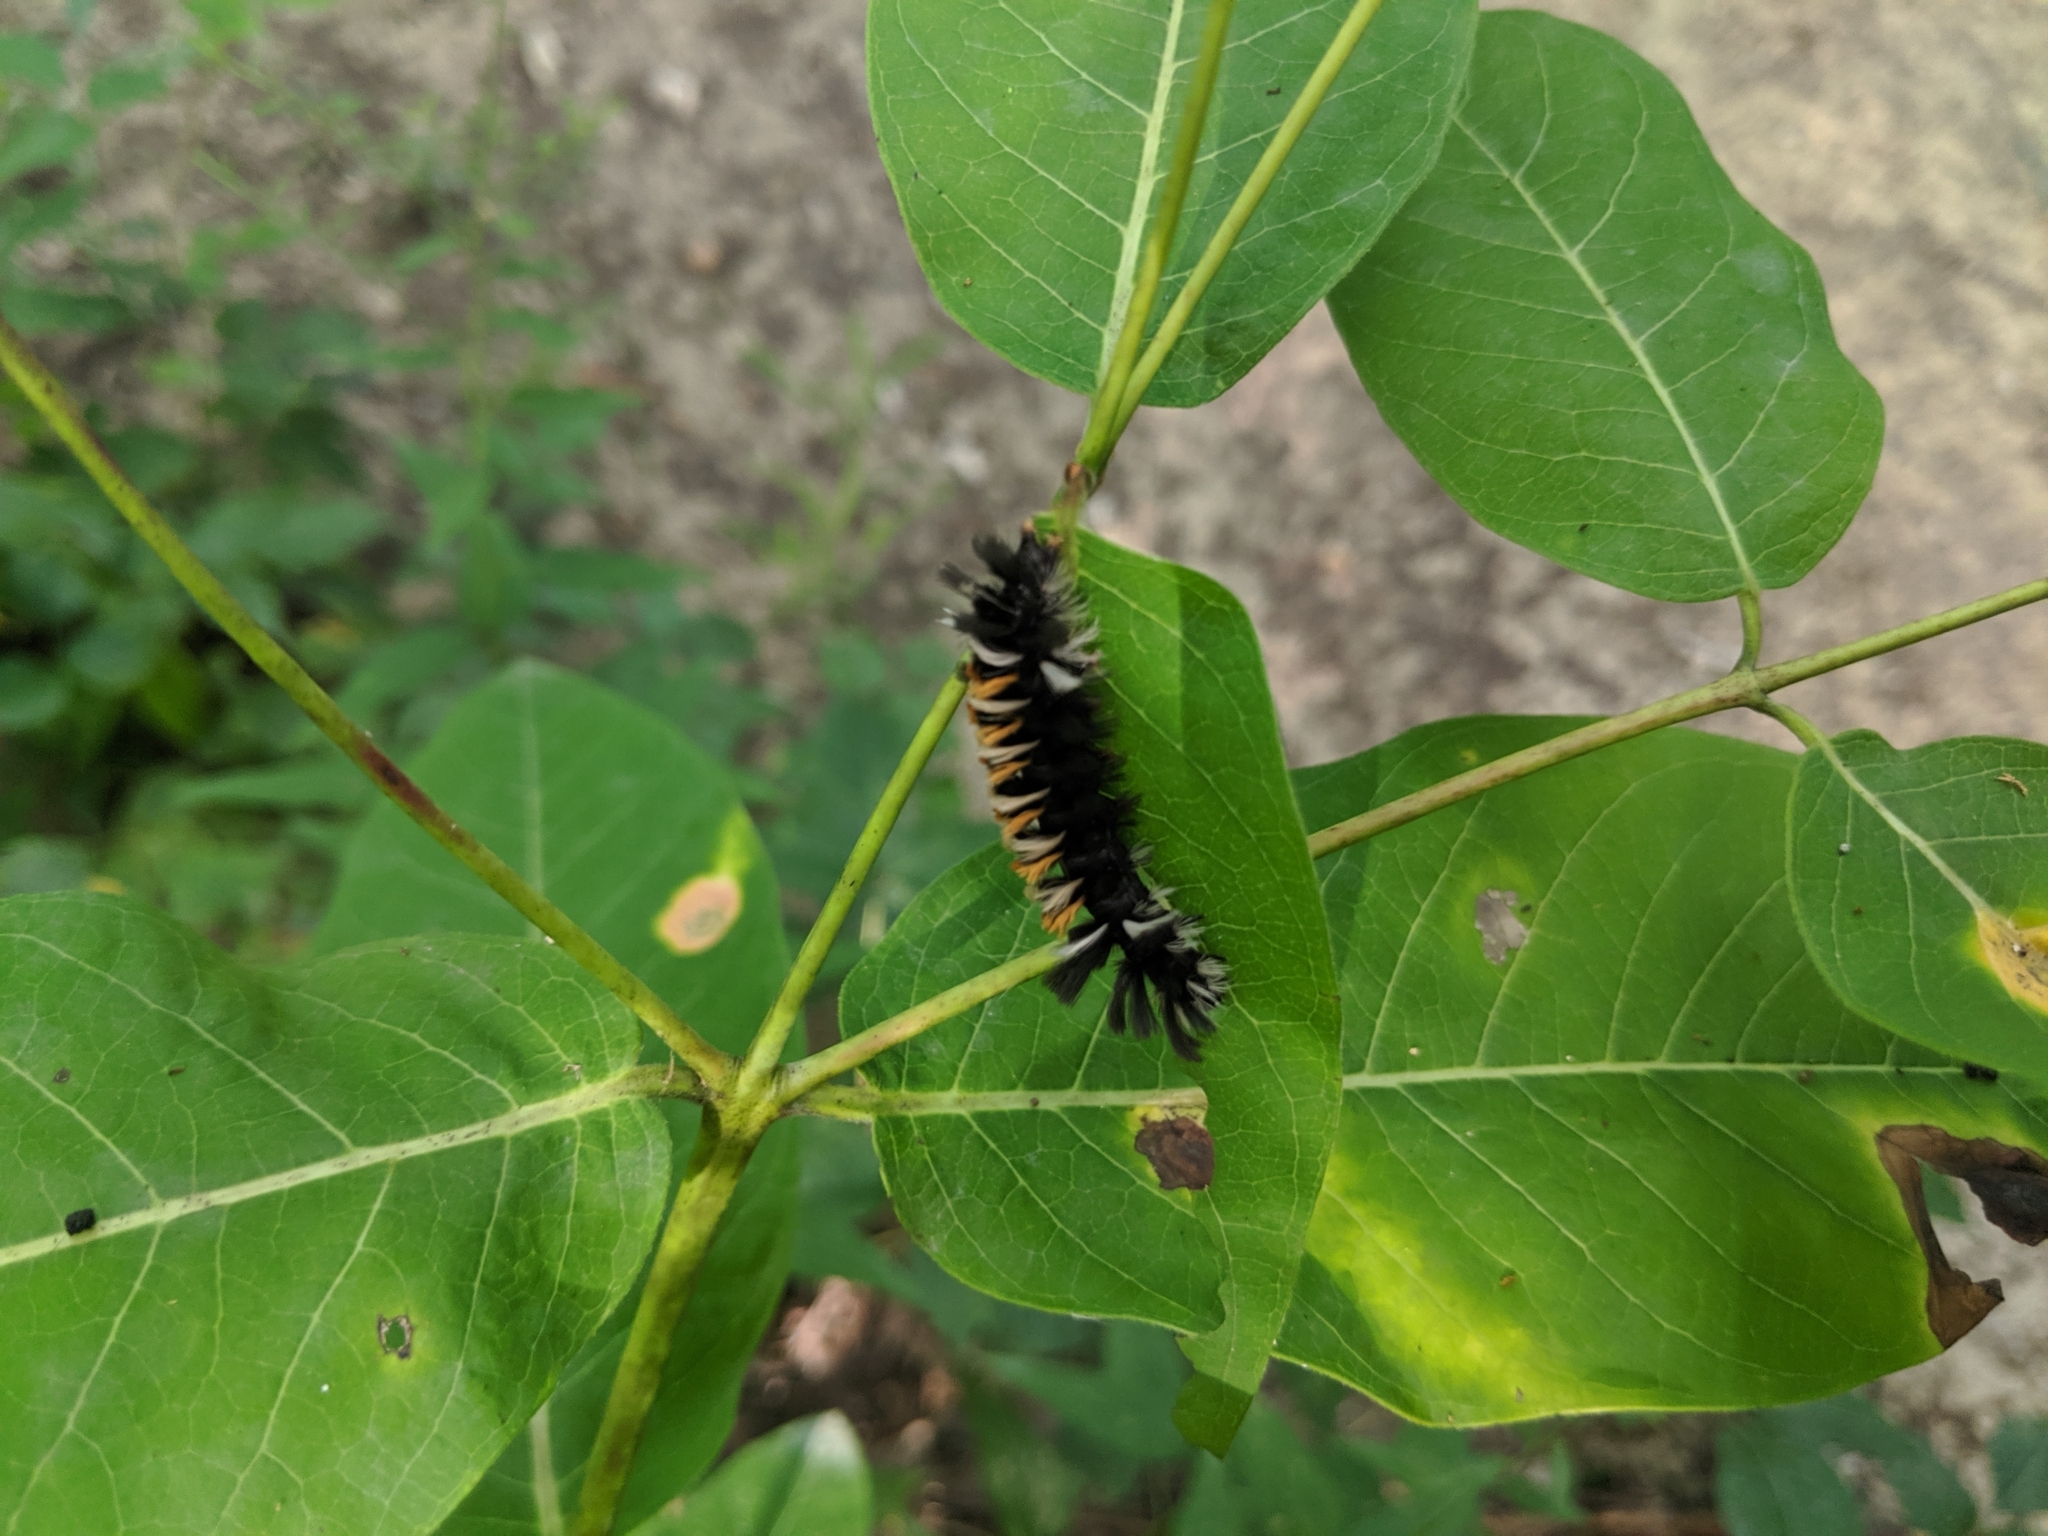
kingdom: Animalia
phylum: Arthropoda
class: Insecta
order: Lepidoptera
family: Erebidae
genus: Euchaetes
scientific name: Euchaetes egle
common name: Milkweed tussock moth
